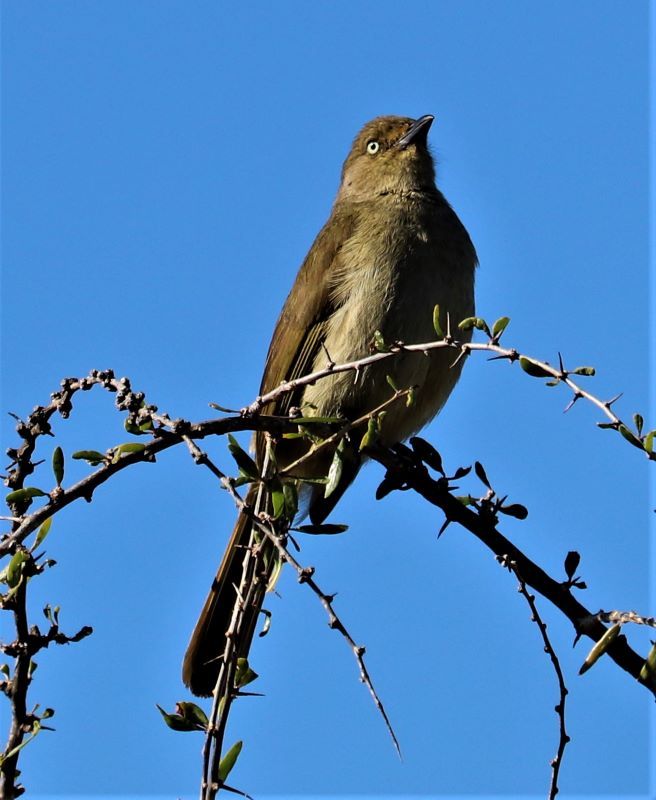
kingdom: Animalia
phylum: Chordata
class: Aves
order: Passeriformes
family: Pycnonotidae
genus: Andropadus
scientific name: Andropadus importunus
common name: Sombre greenbul
